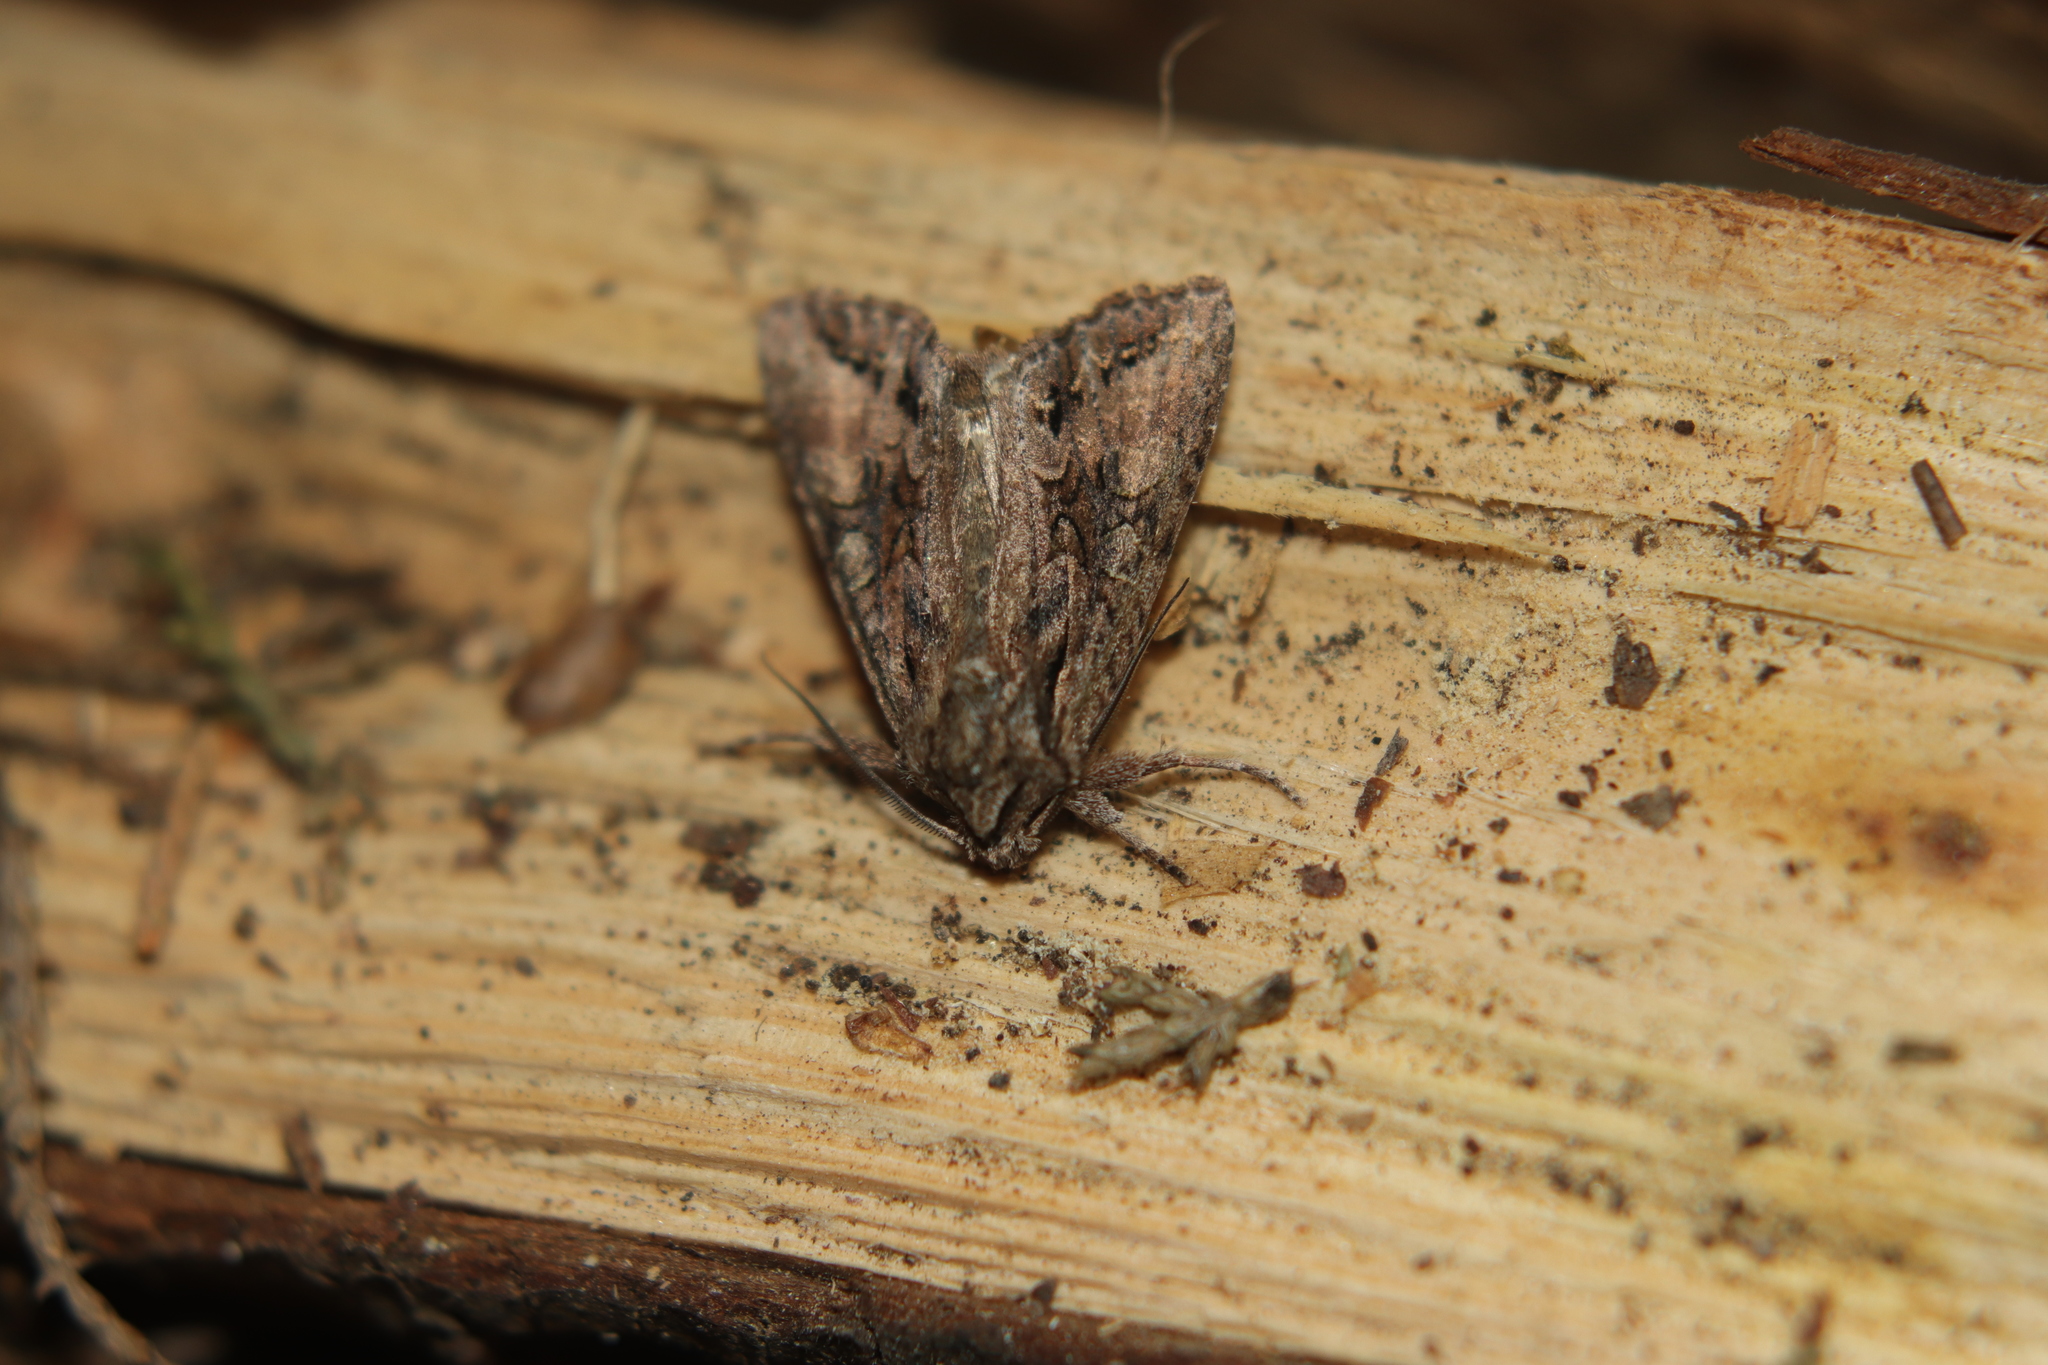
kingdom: Animalia
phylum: Arthropoda
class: Insecta
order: Lepidoptera
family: Noctuidae
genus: Ichneutica
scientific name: Ichneutica mutans
